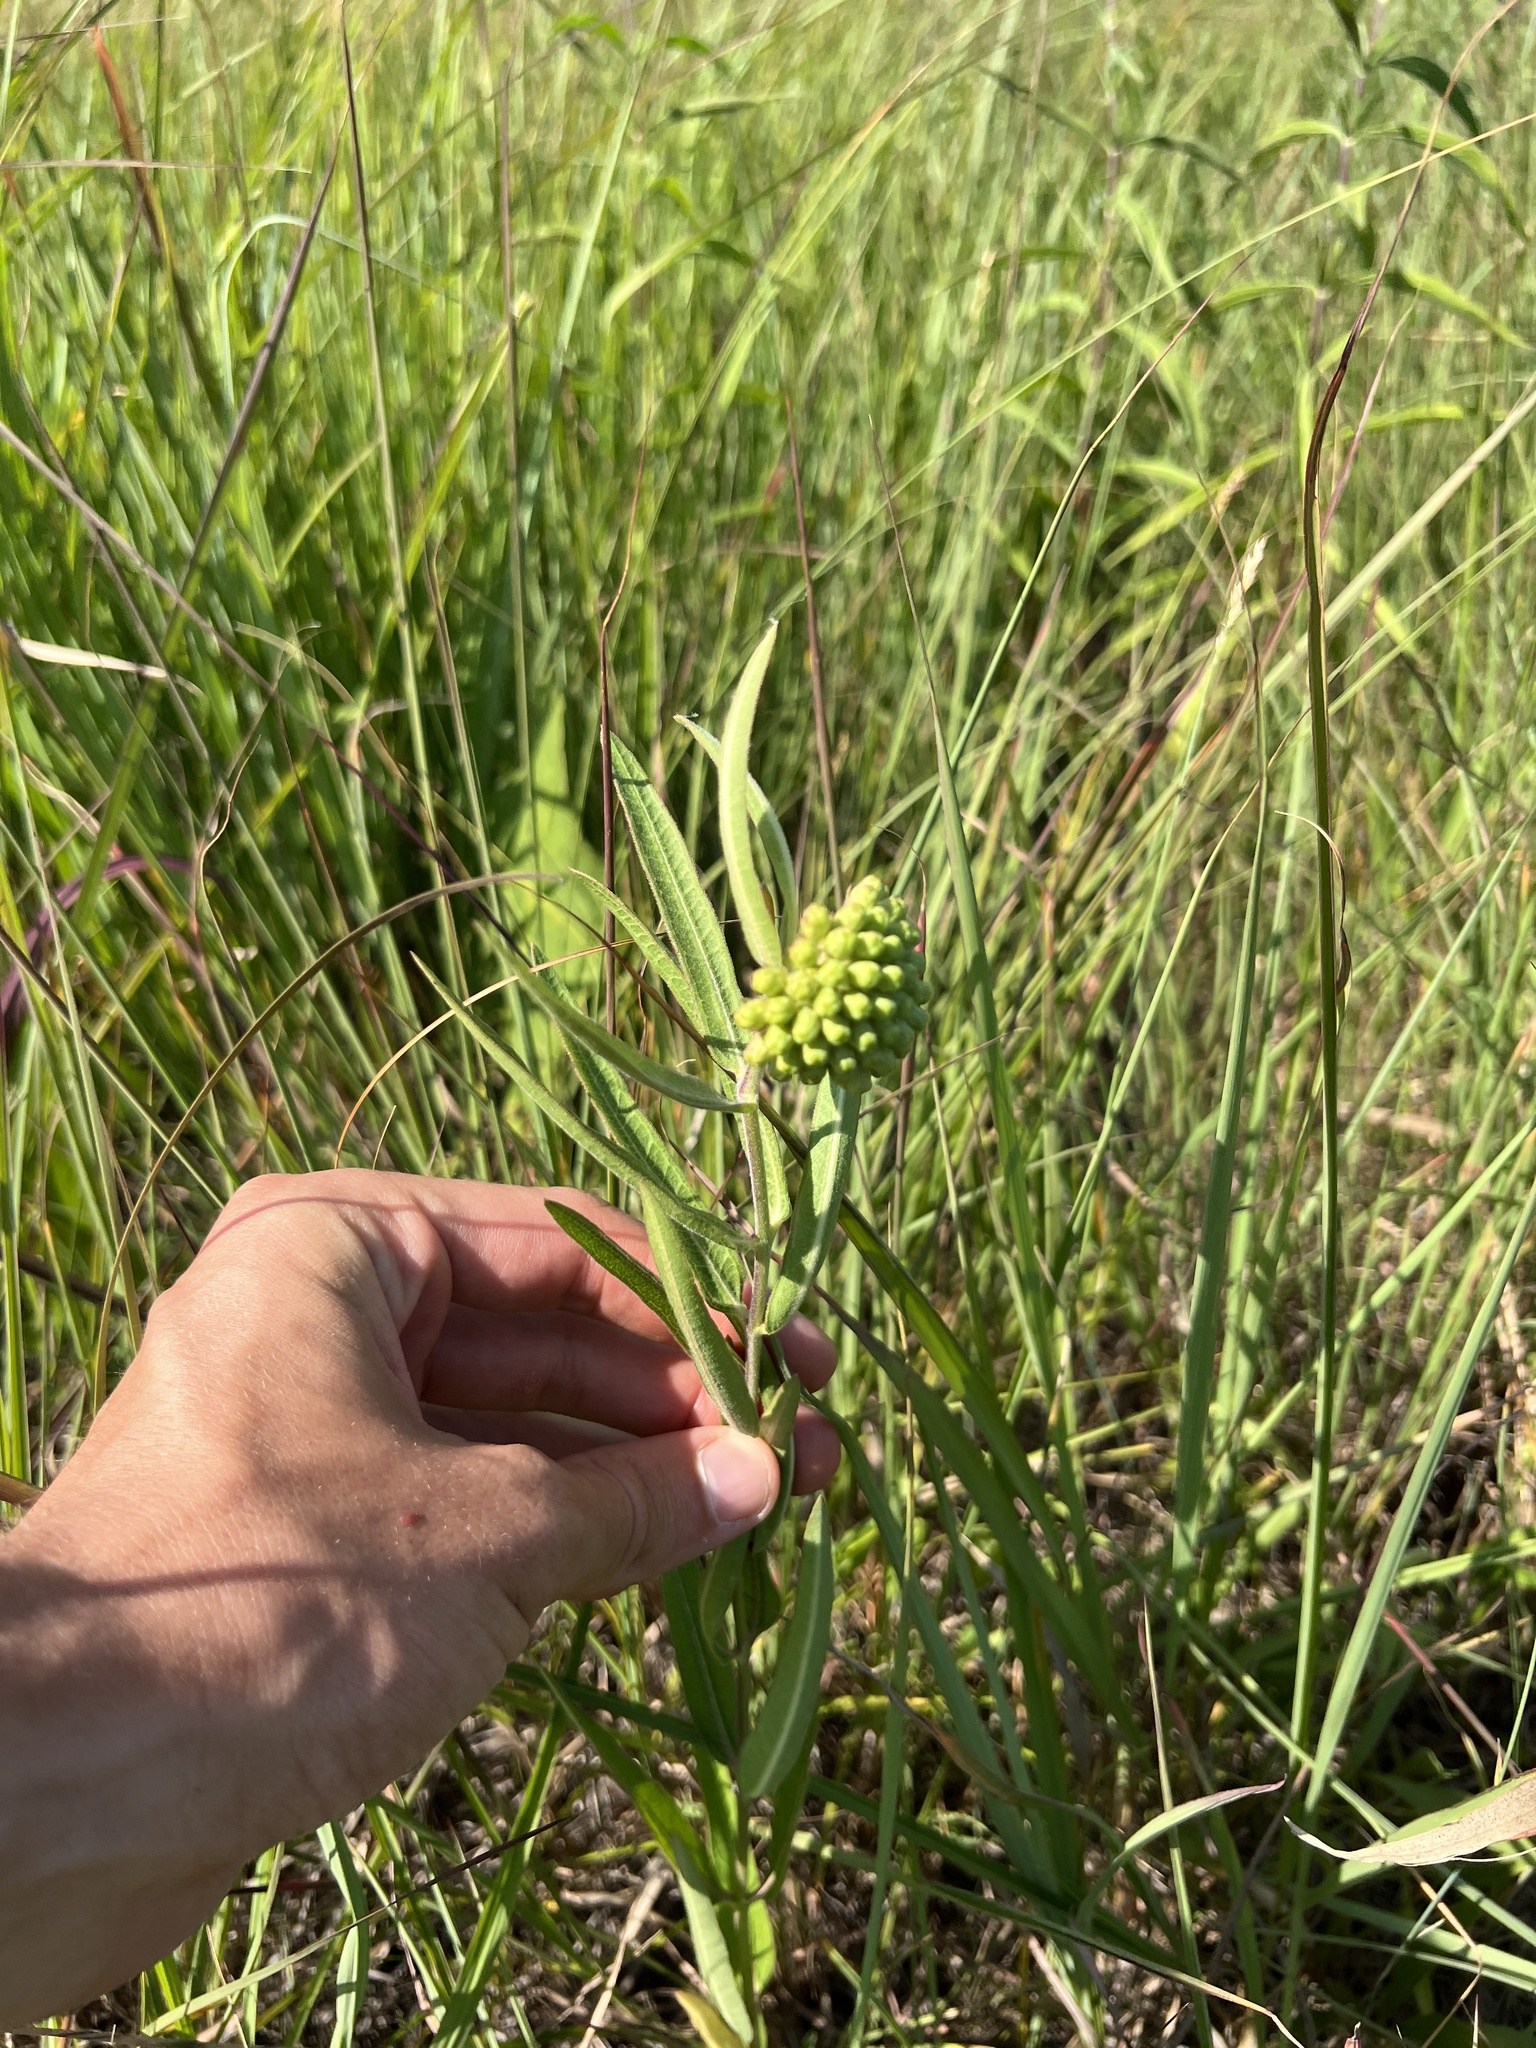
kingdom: Plantae
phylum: Tracheophyta
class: Magnoliopsida
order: Gentianales
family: Apocynaceae
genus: Asclepias
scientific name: Asclepias viridiflora
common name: Green comet milkweed
